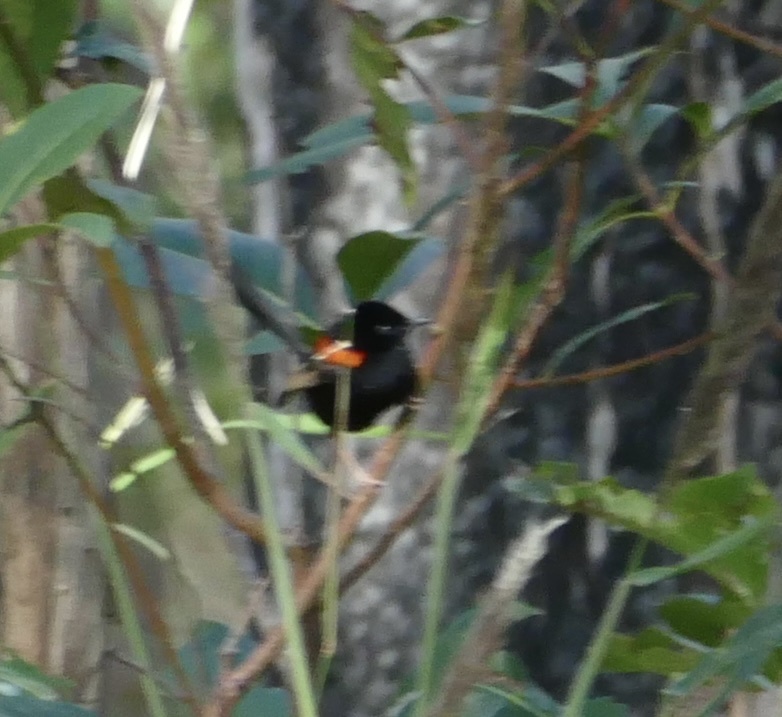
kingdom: Animalia
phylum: Chordata
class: Aves
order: Passeriformes
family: Maluridae
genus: Malurus
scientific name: Malurus melanocephalus
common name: Red-backed fairywren
